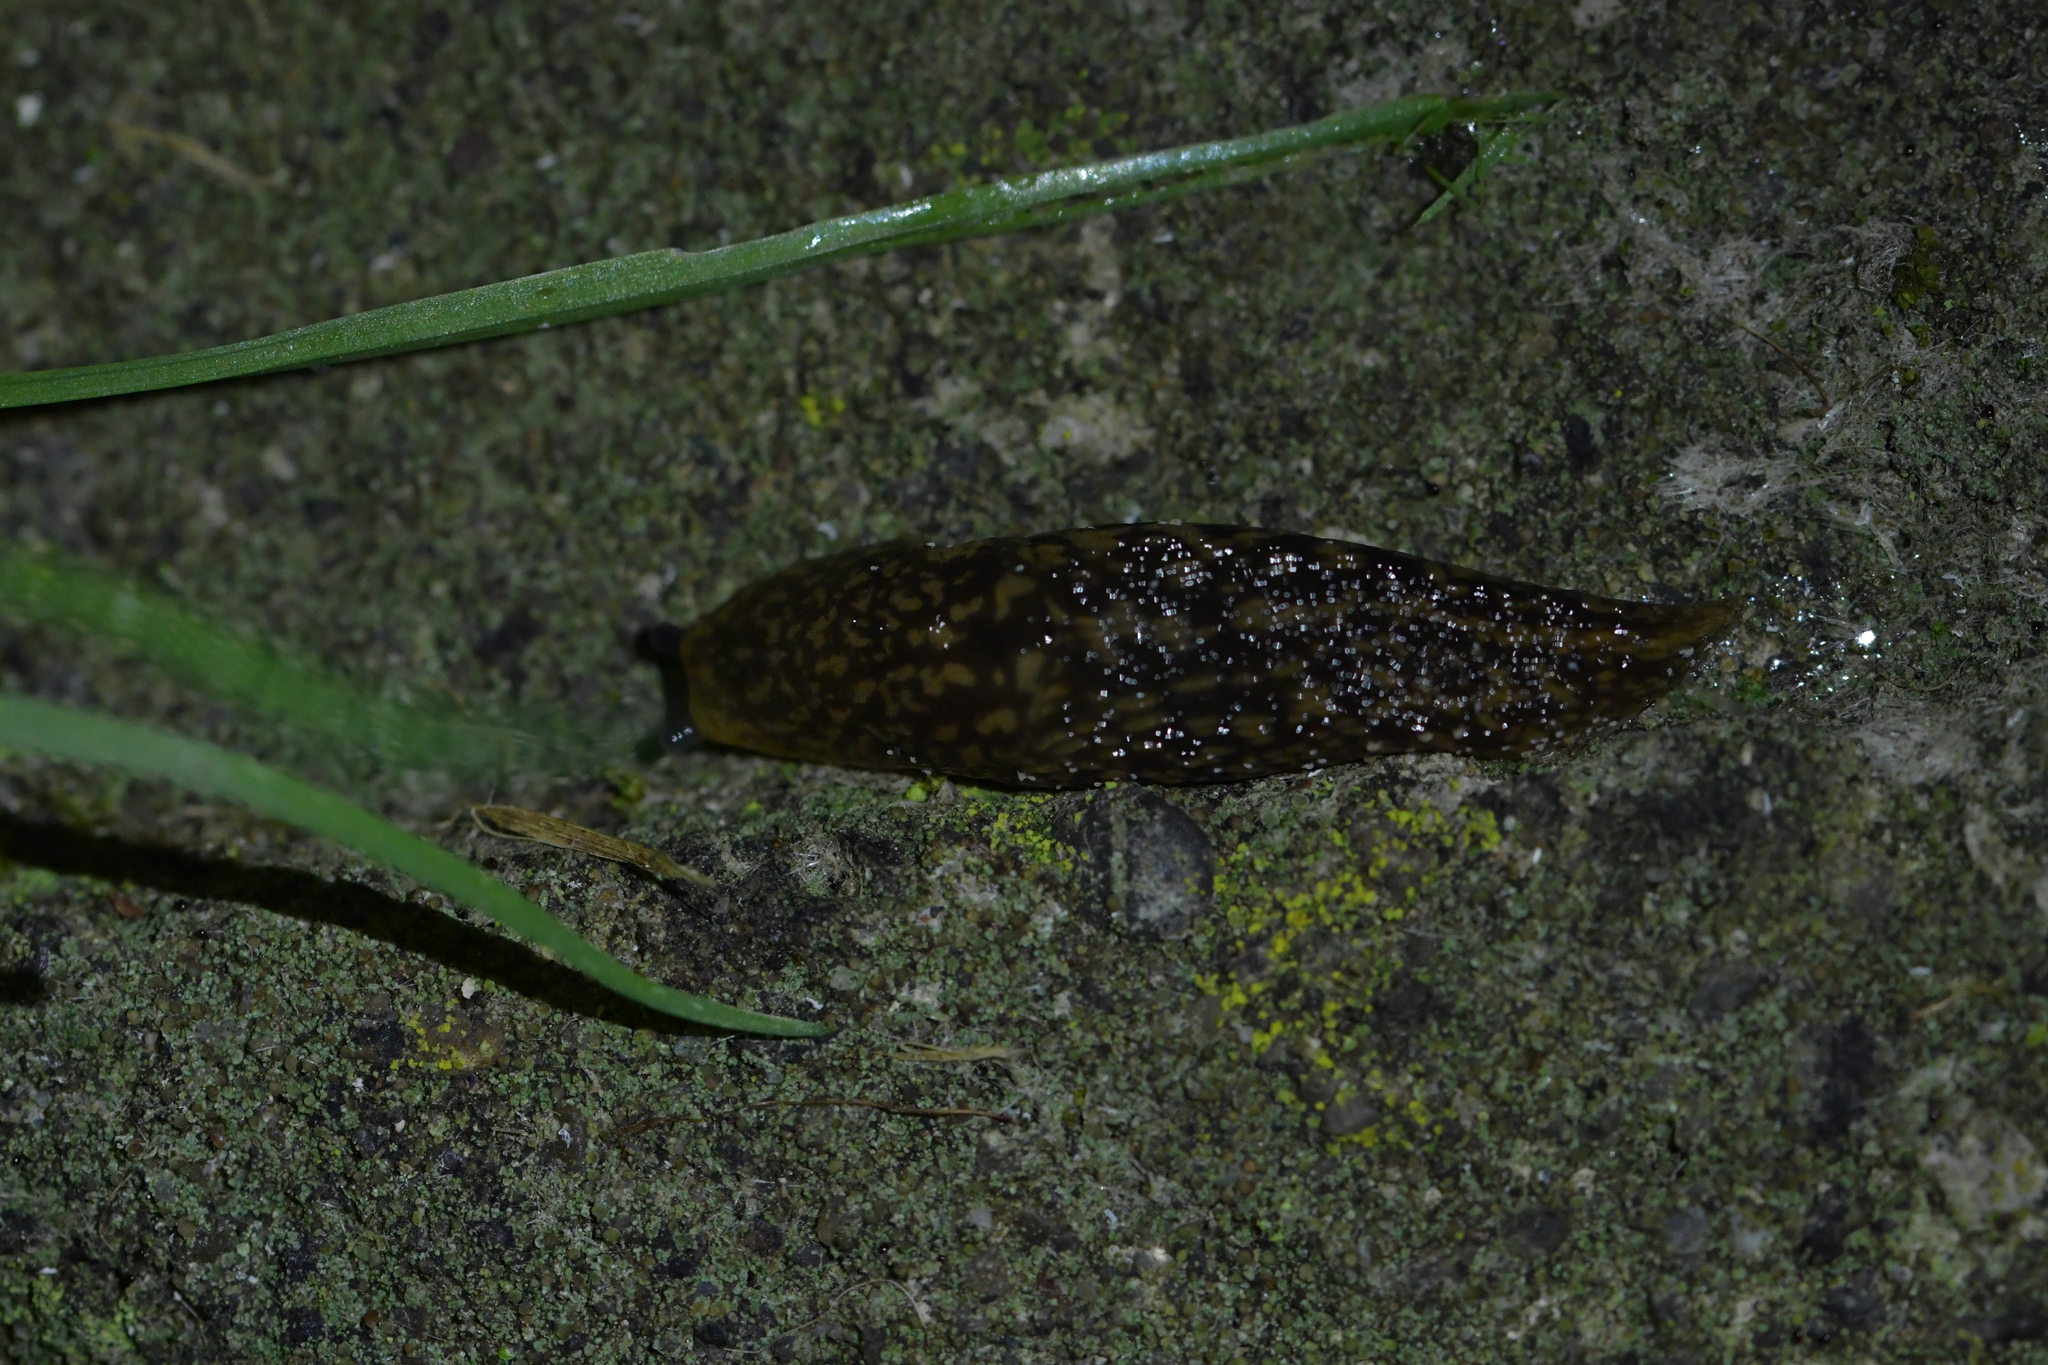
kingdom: Animalia
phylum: Mollusca
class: Gastropoda
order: Stylommatophora
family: Limacidae
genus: Limacus
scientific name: Limacus flavus
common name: Yellow gardenslug
